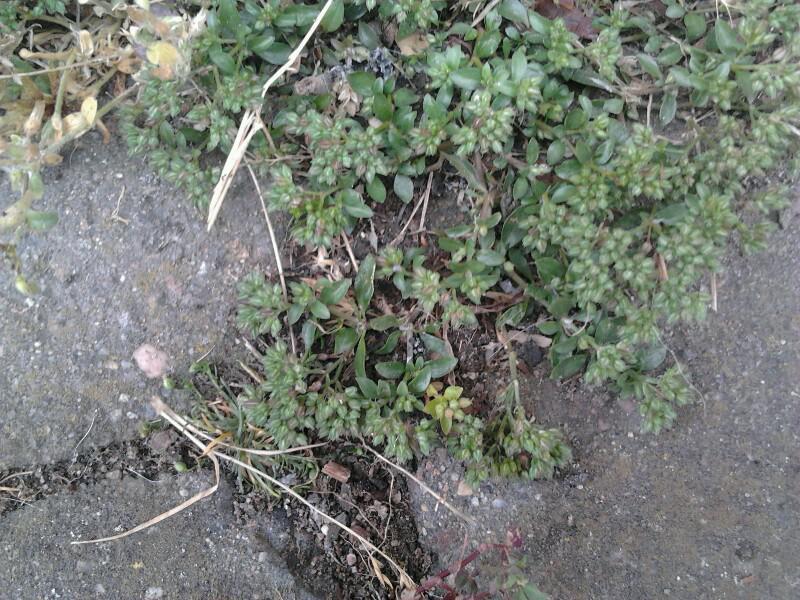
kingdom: Plantae
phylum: Tracheophyta
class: Magnoliopsida
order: Caryophyllales
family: Caryophyllaceae
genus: Polycarpon
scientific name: Polycarpon tetraphyllum
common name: Four-leaved all-seed
